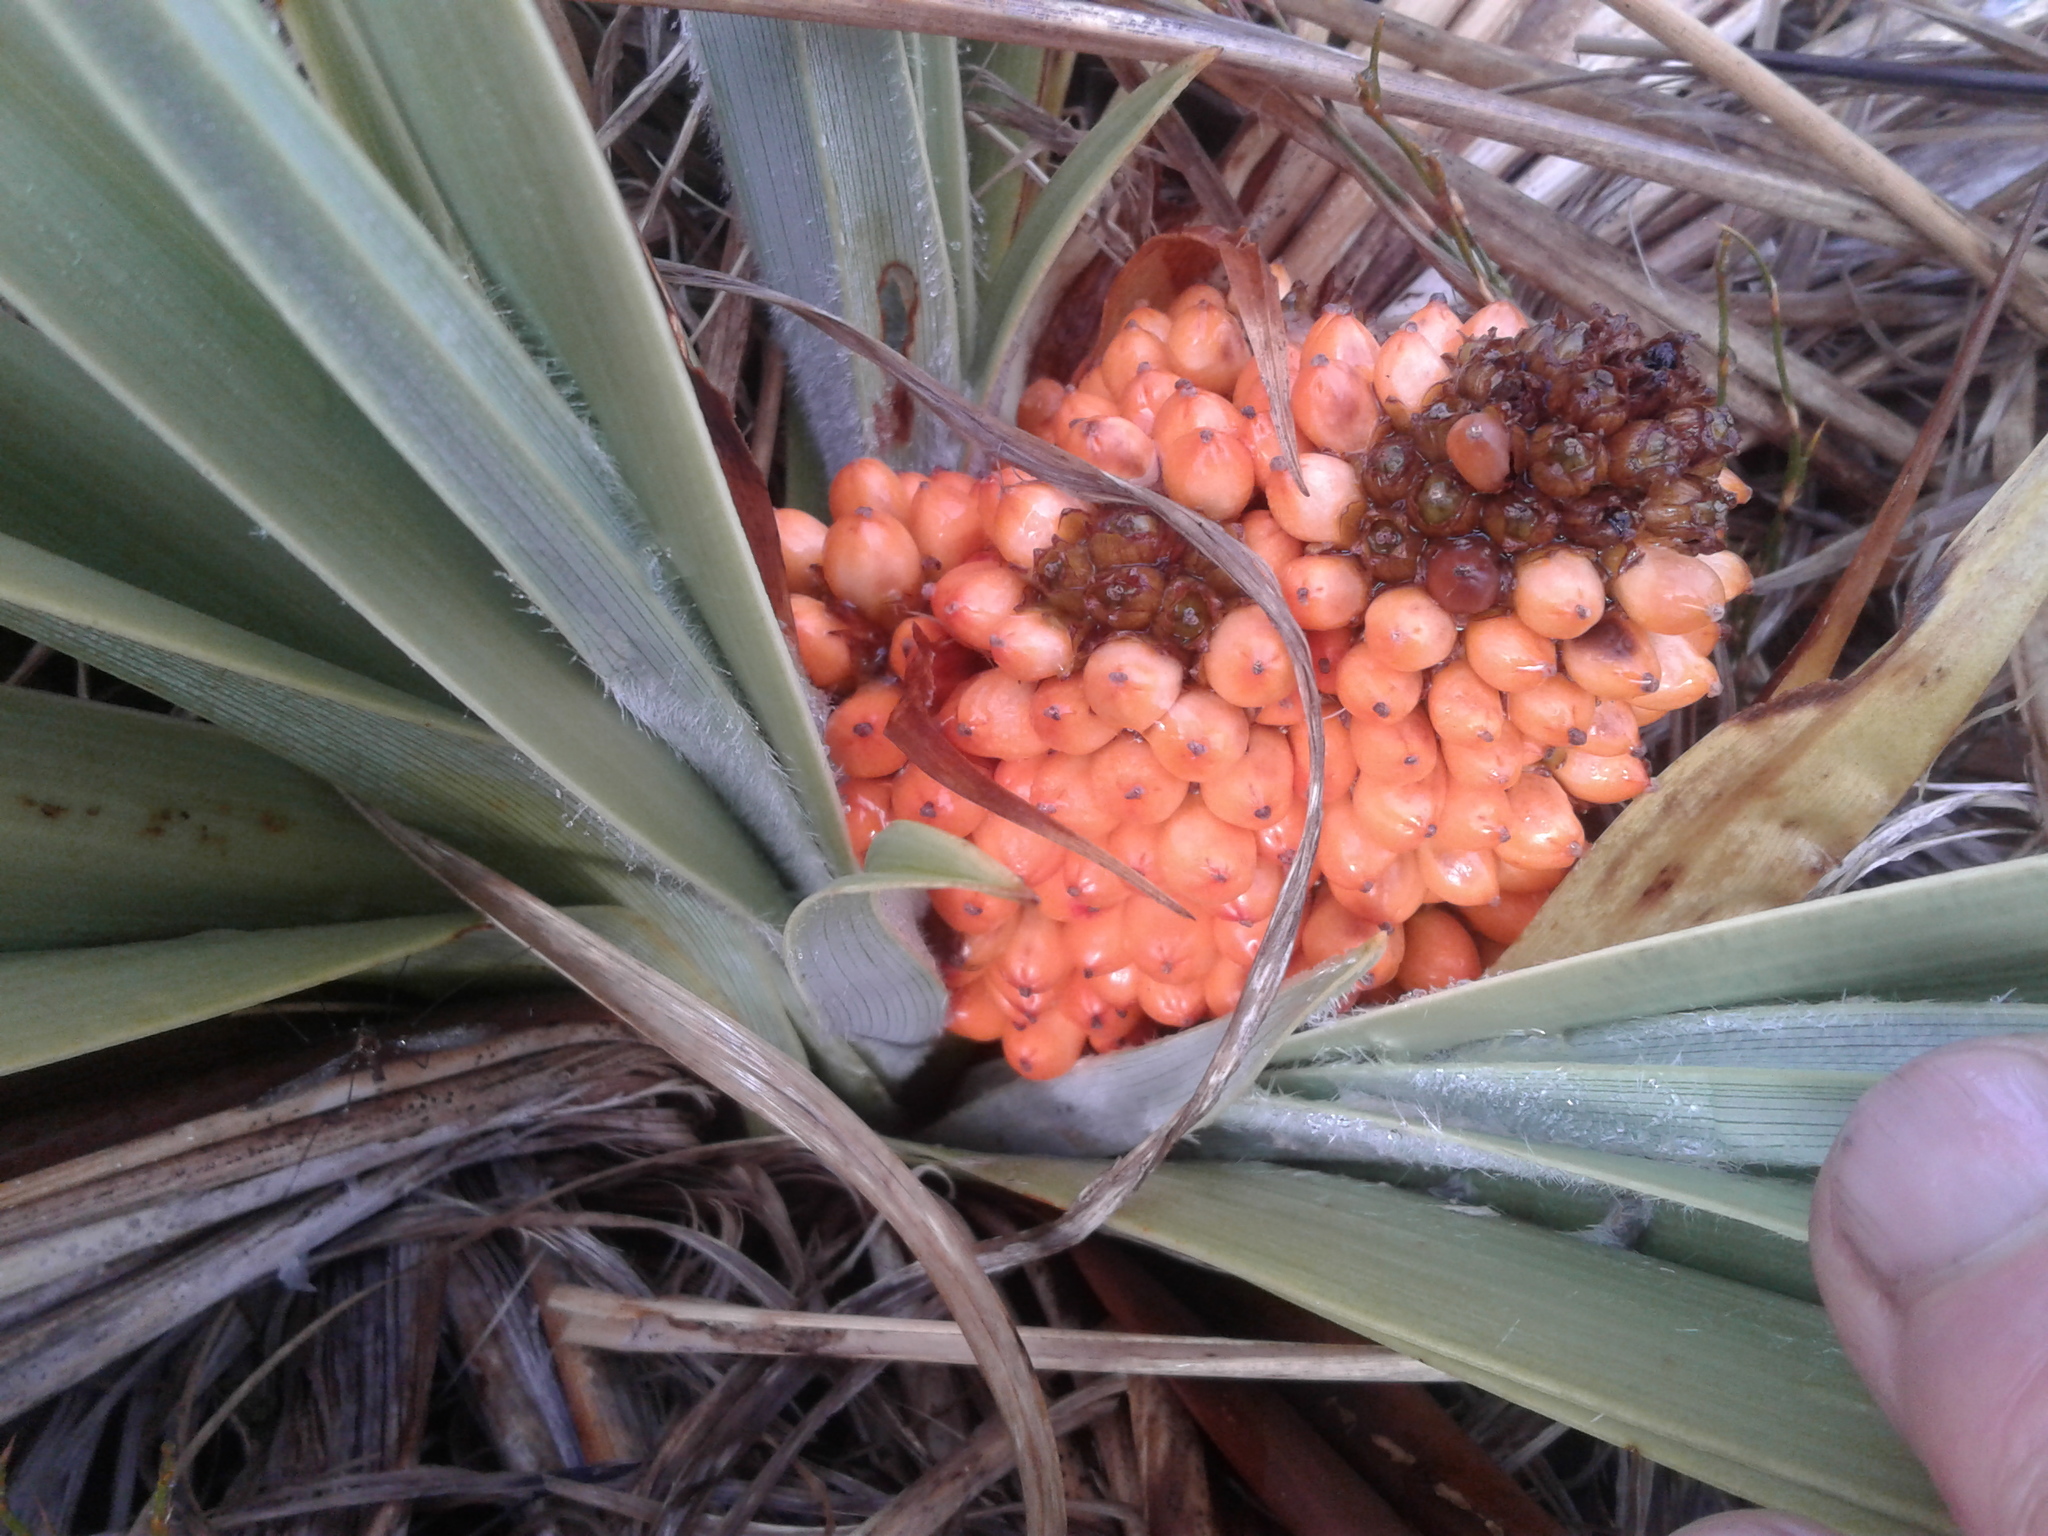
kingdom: Plantae
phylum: Tracheophyta
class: Liliopsida
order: Asparagales
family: Asteliaceae
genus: Astelia
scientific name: Astelia skottsbergii
